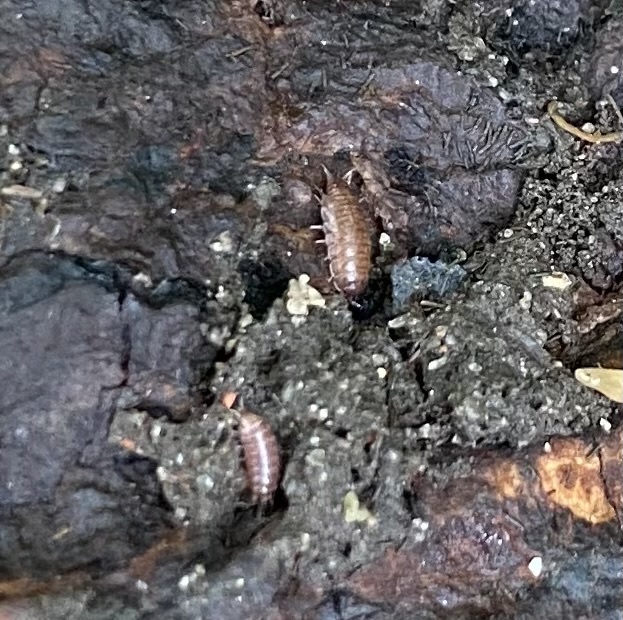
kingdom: Animalia
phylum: Arthropoda
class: Malacostraca
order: Isopoda
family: Trichoniscidae
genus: Trichoniscus
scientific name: Trichoniscus
